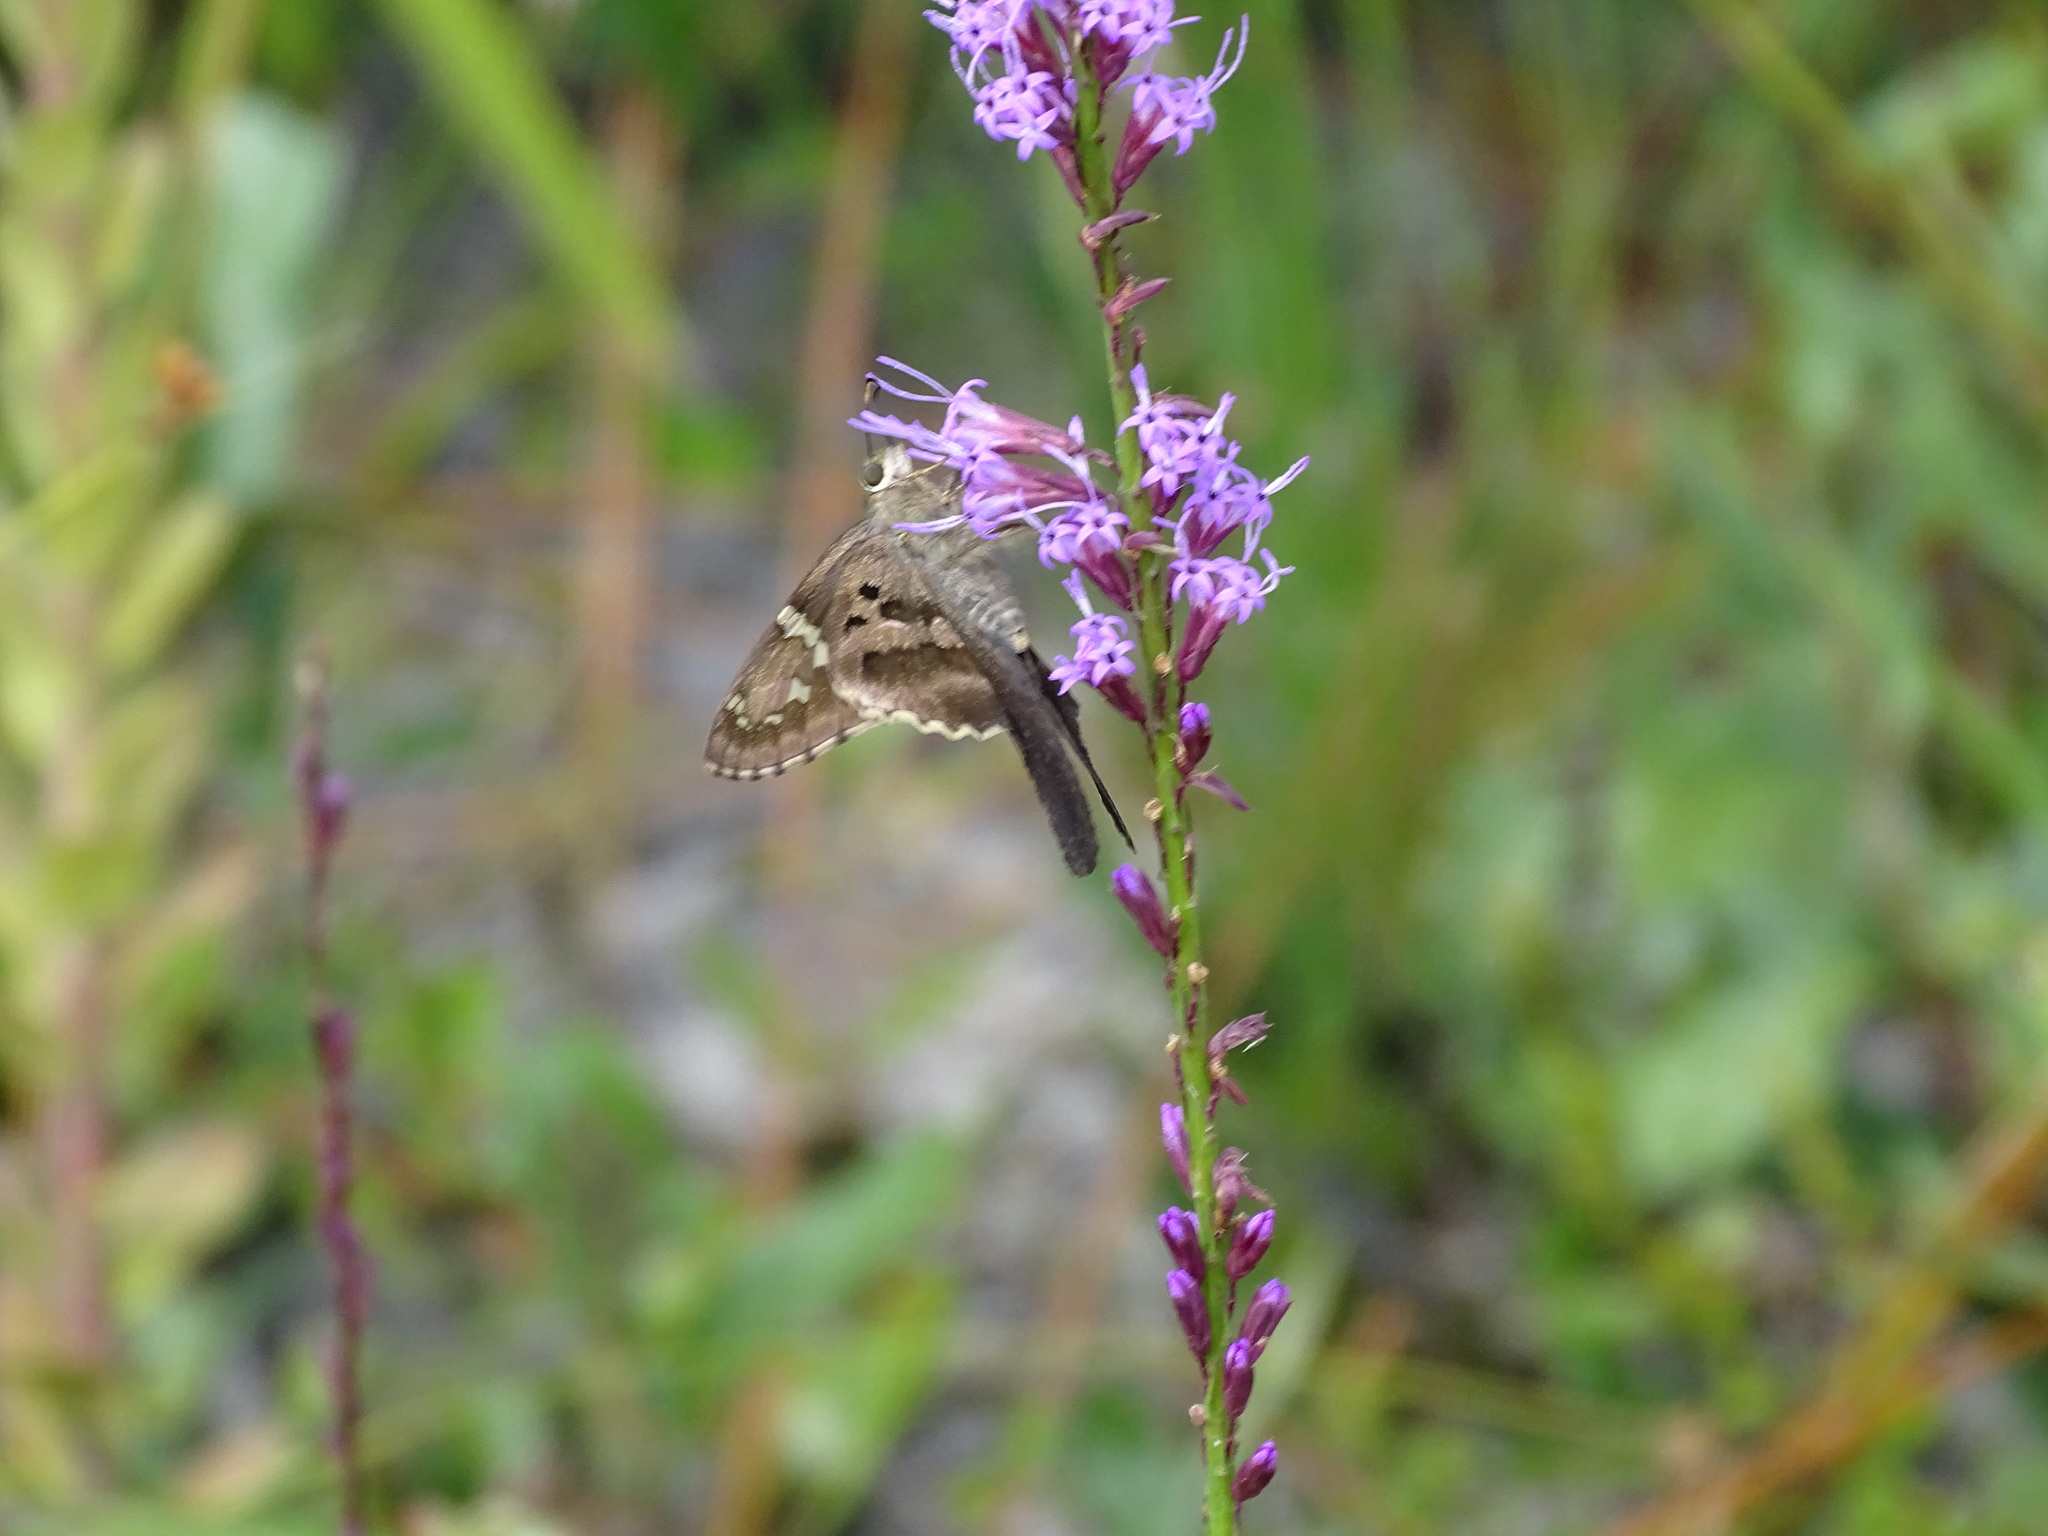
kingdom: Animalia
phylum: Arthropoda
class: Insecta
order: Lepidoptera
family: Hesperiidae
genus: Urbanus
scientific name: Urbanus proteus
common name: Long-tailed skipper
